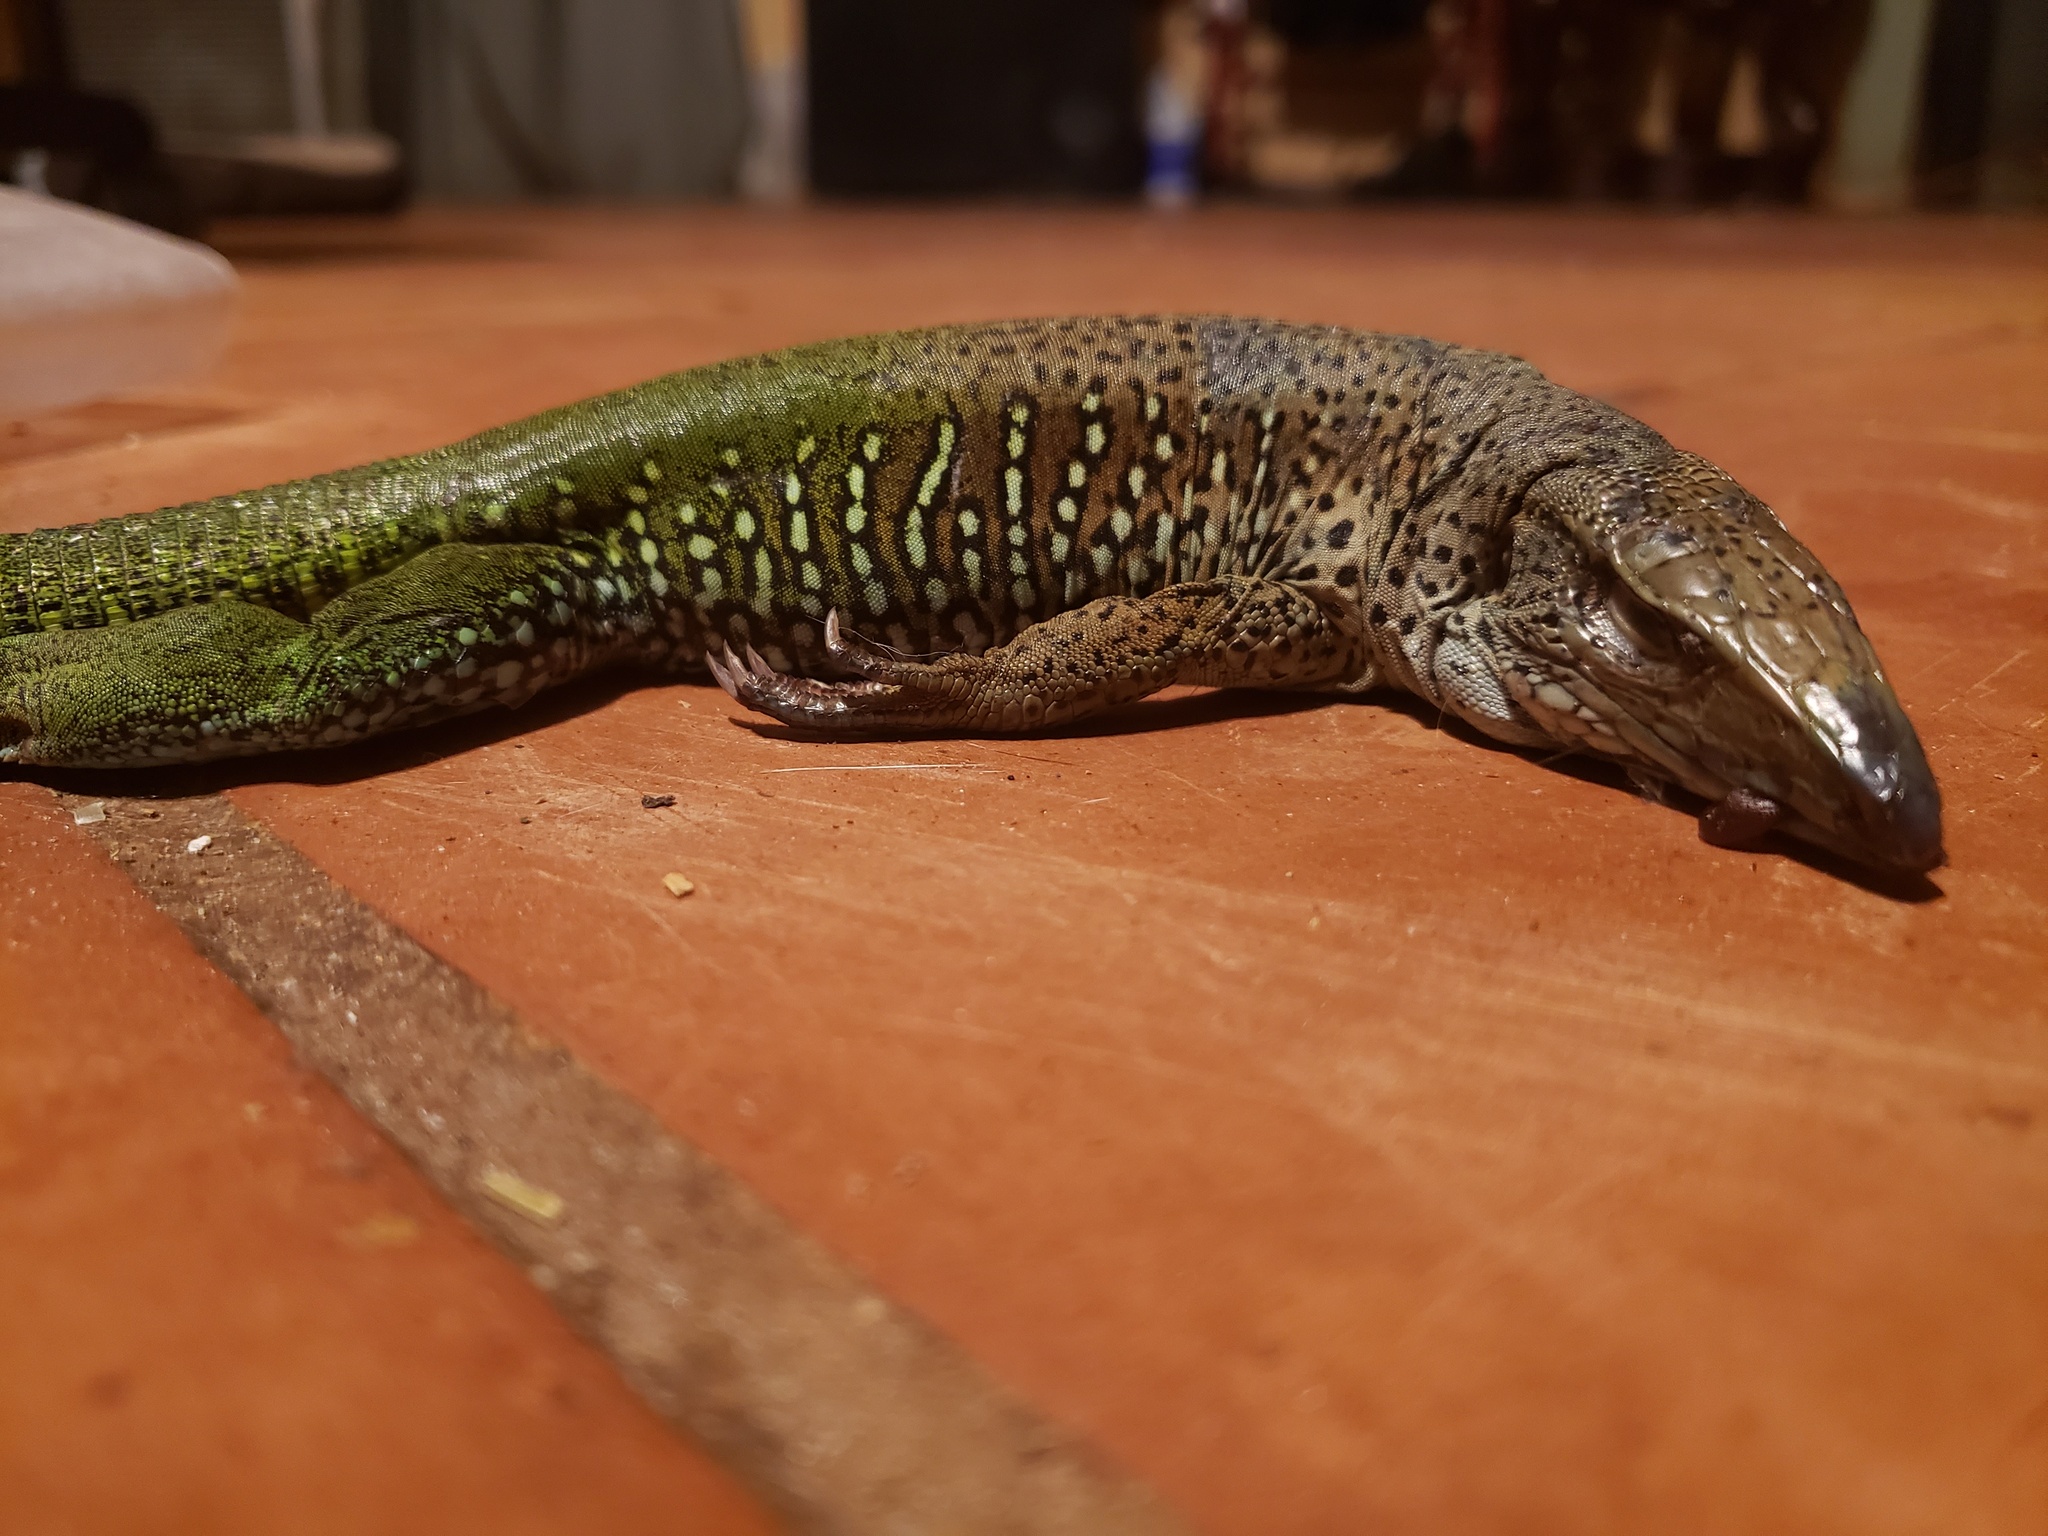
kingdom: Animalia
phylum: Chordata
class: Squamata
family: Teiidae
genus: Ameiva
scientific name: Ameiva ameiva
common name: Giant ameiva
